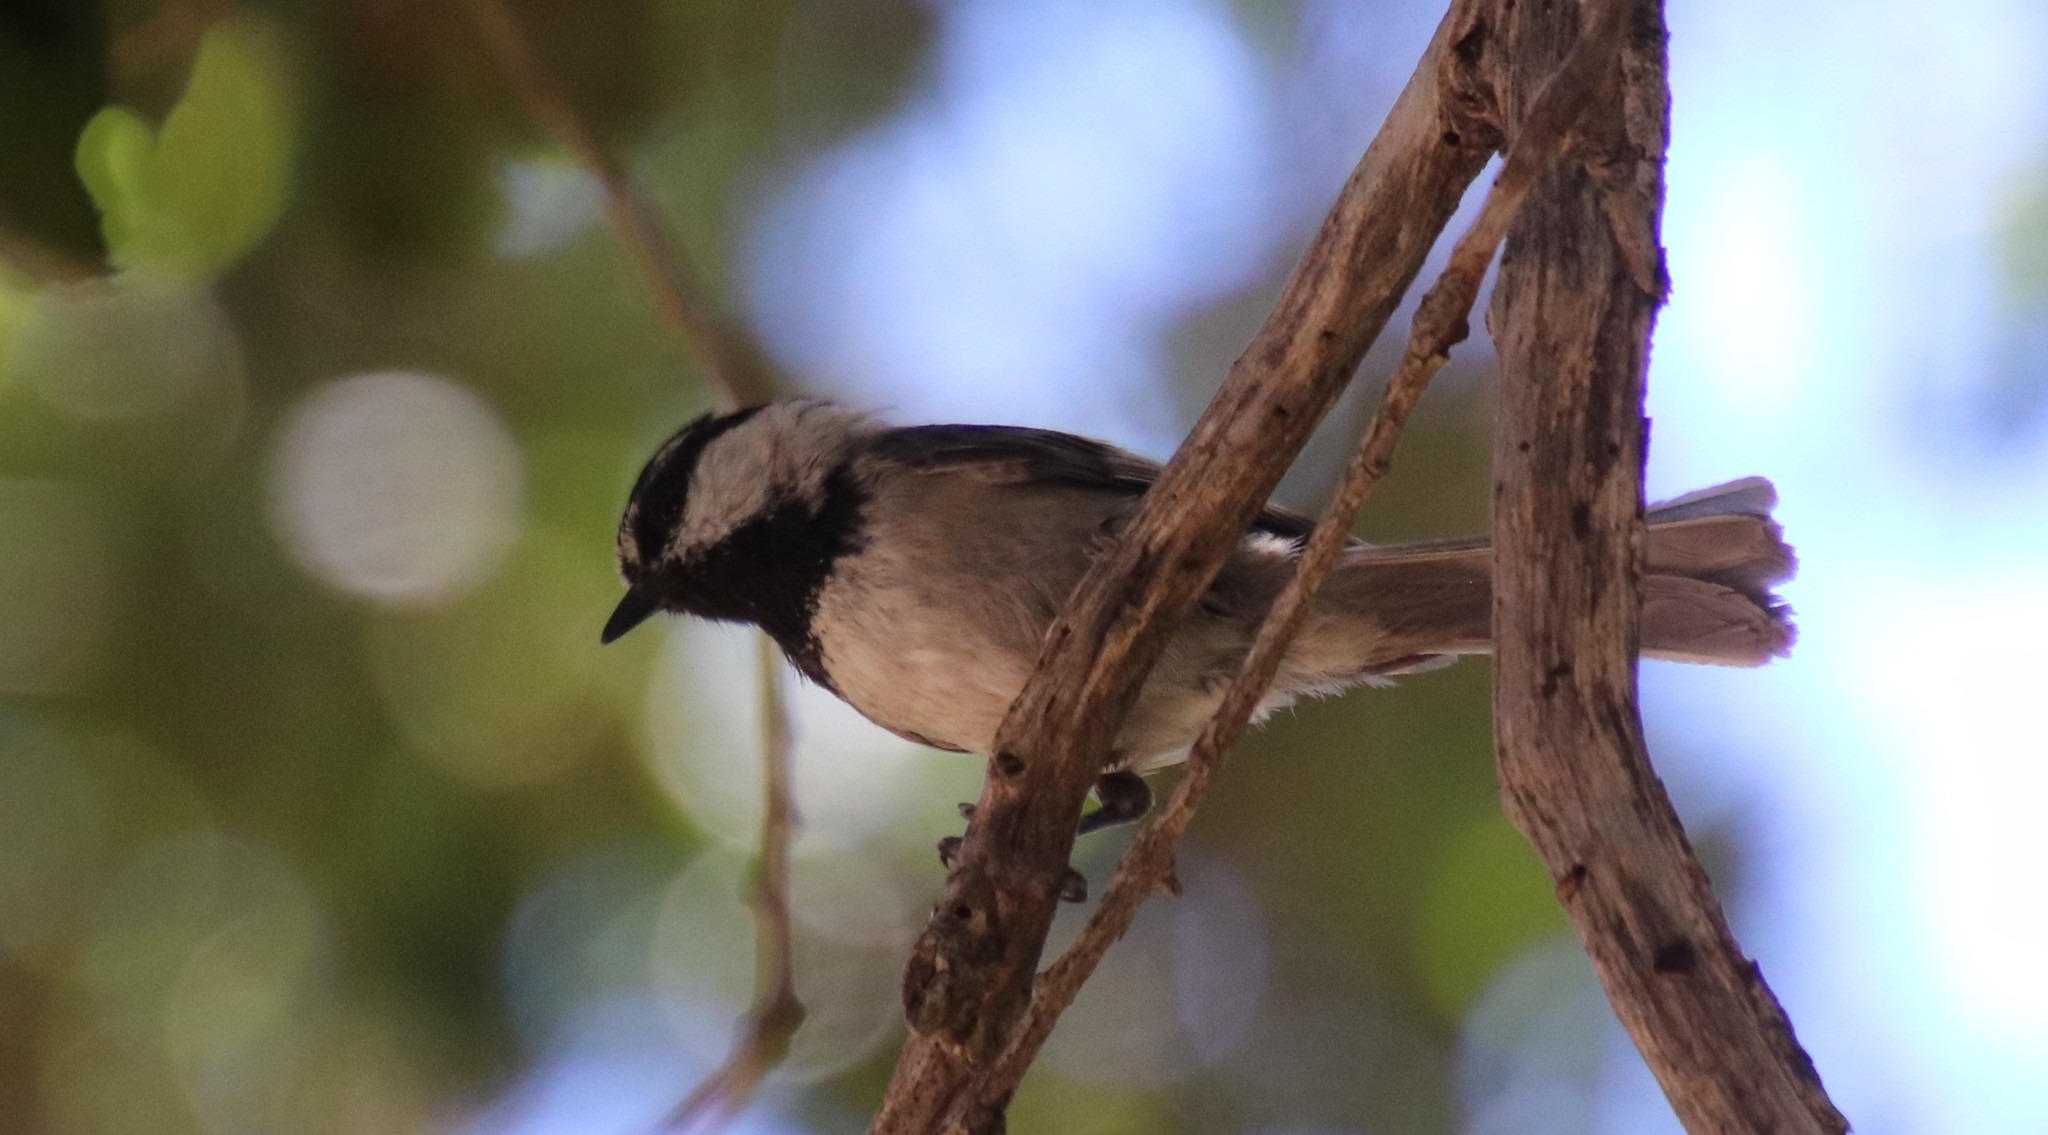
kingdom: Animalia
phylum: Chordata
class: Aves
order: Passeriformes
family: Paridae
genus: Poecile
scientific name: Poecile gambeli
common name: Mountain chickadee
